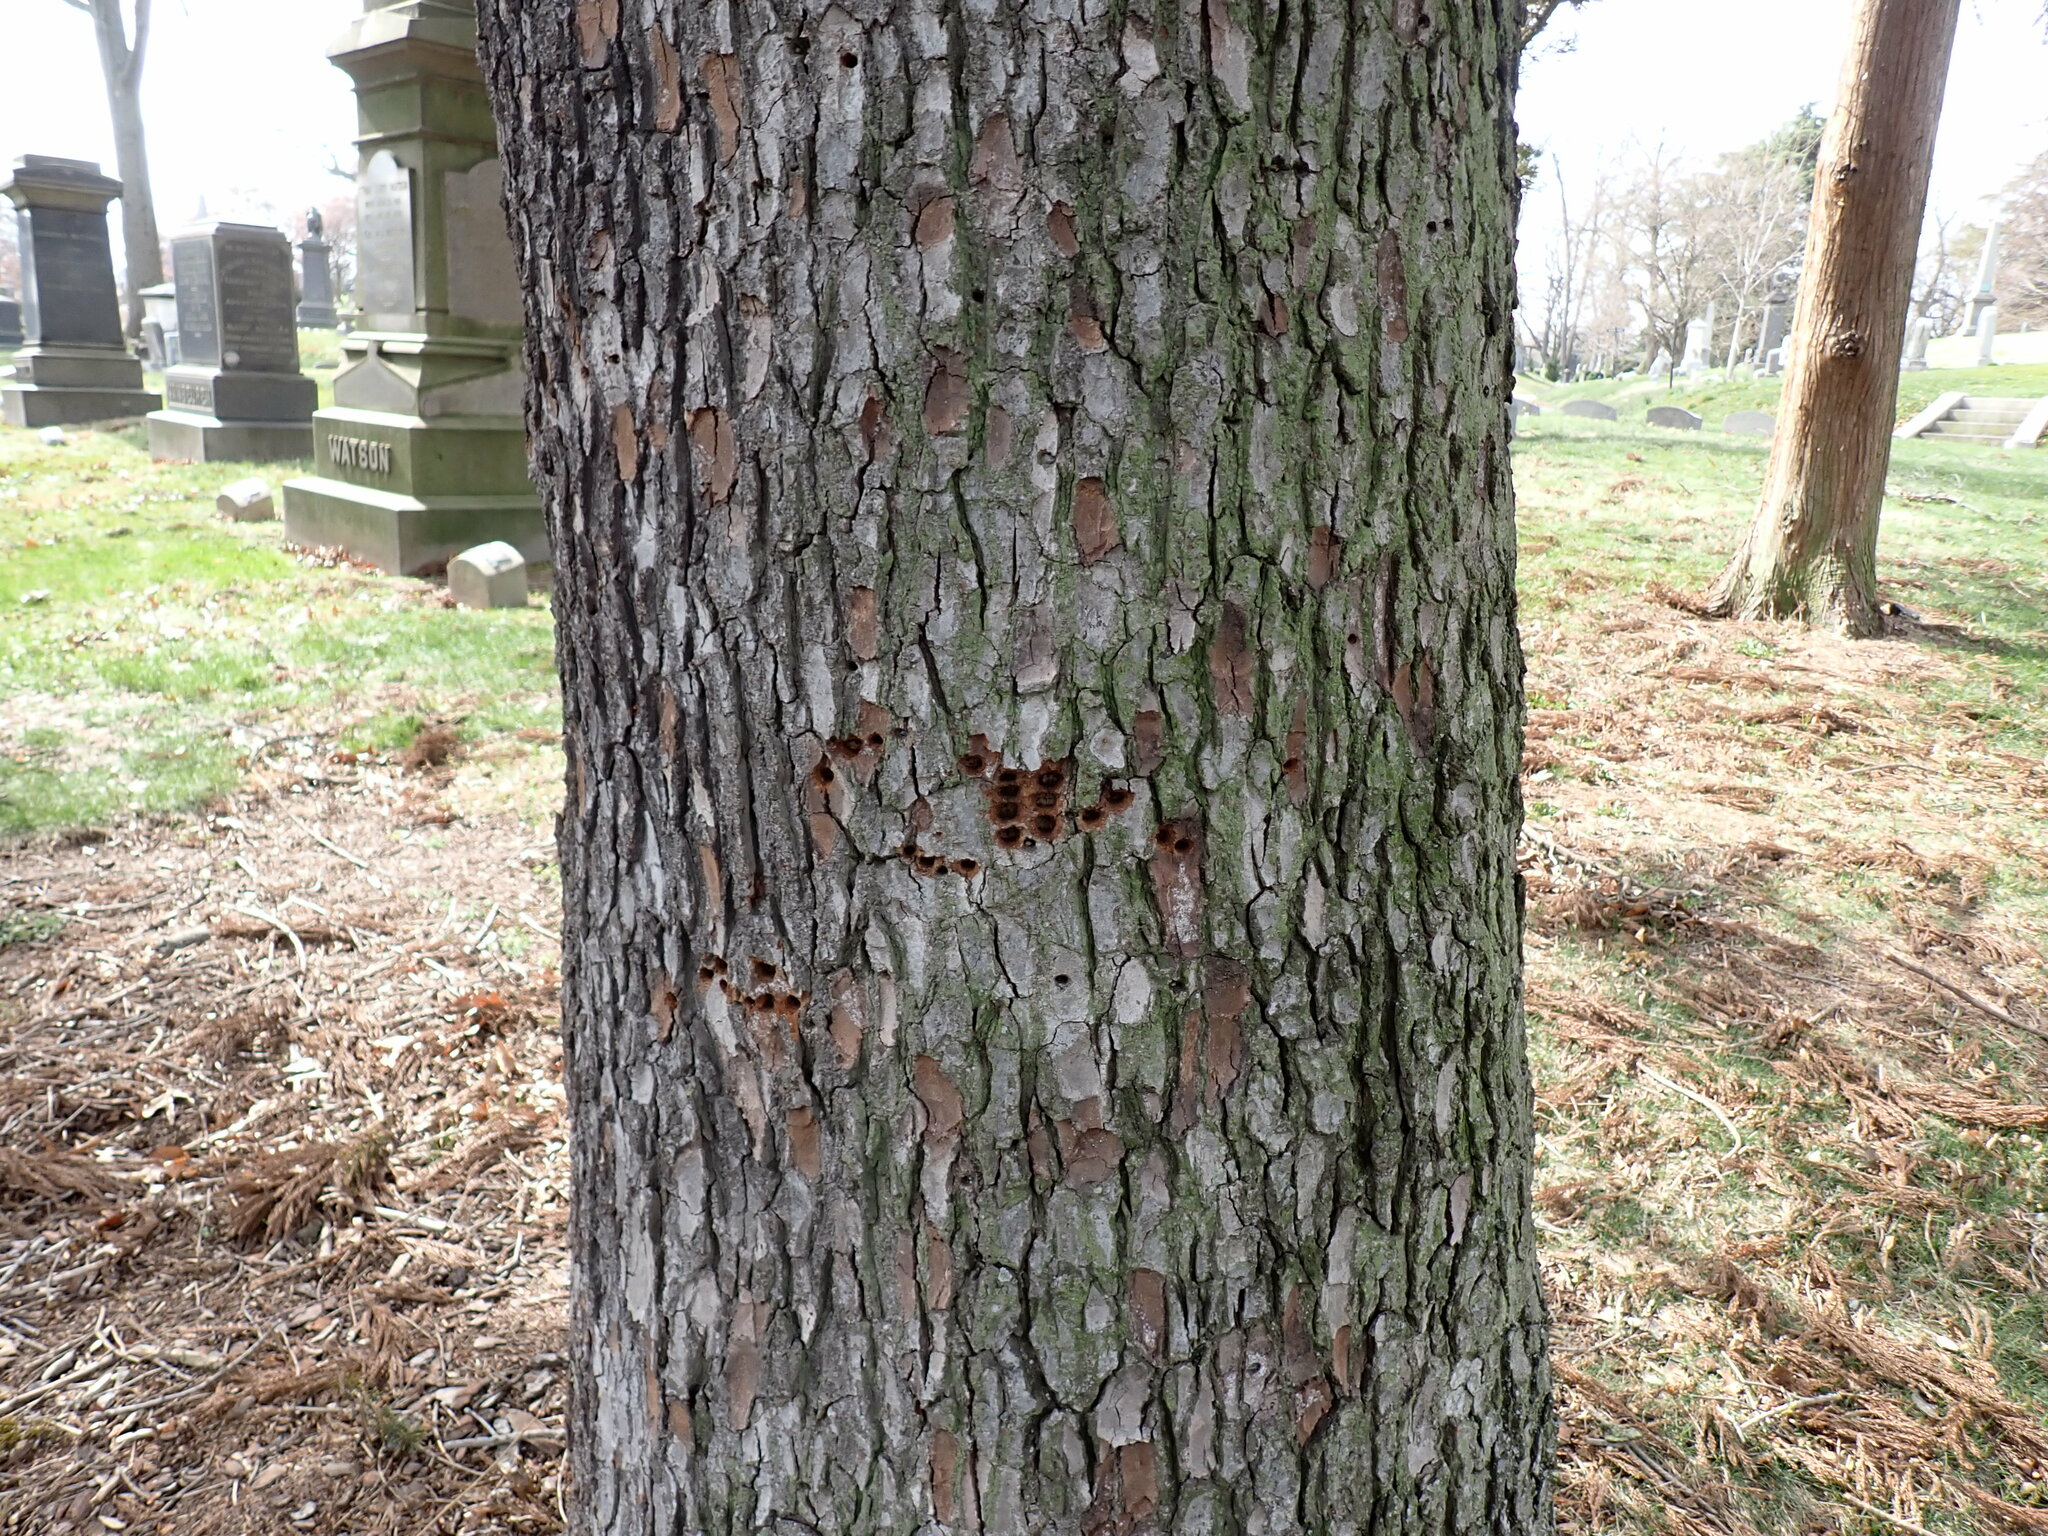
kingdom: Animalia
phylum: Chordata
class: Aves
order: Piciformes
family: Picidae
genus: Sphyrapicus
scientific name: Sphyrapicus varius
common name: Yellow-bellied sapsucker
